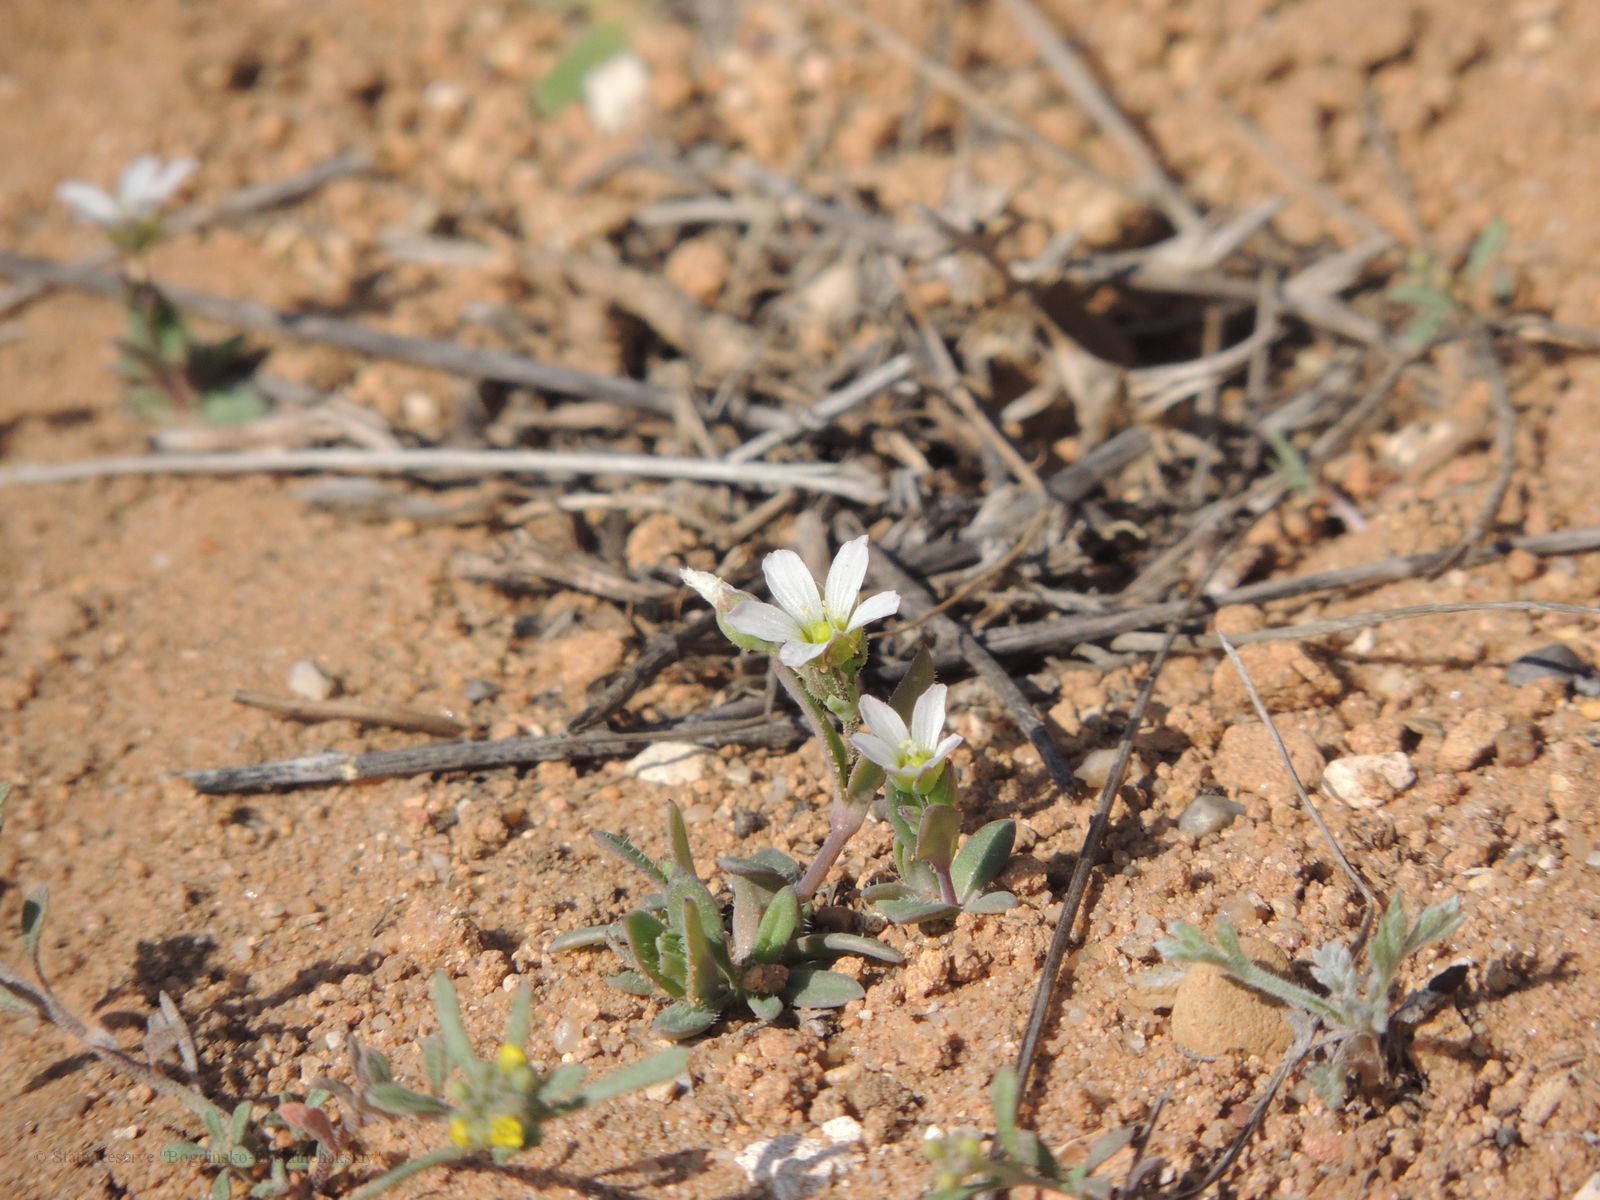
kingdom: Plantae
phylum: Tracheophyta
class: Magnoliopsida
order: Caryophyllales
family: Caryophyllaceae
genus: Holosteum
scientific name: Holosteum umbellatum
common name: Jagged chickweed
